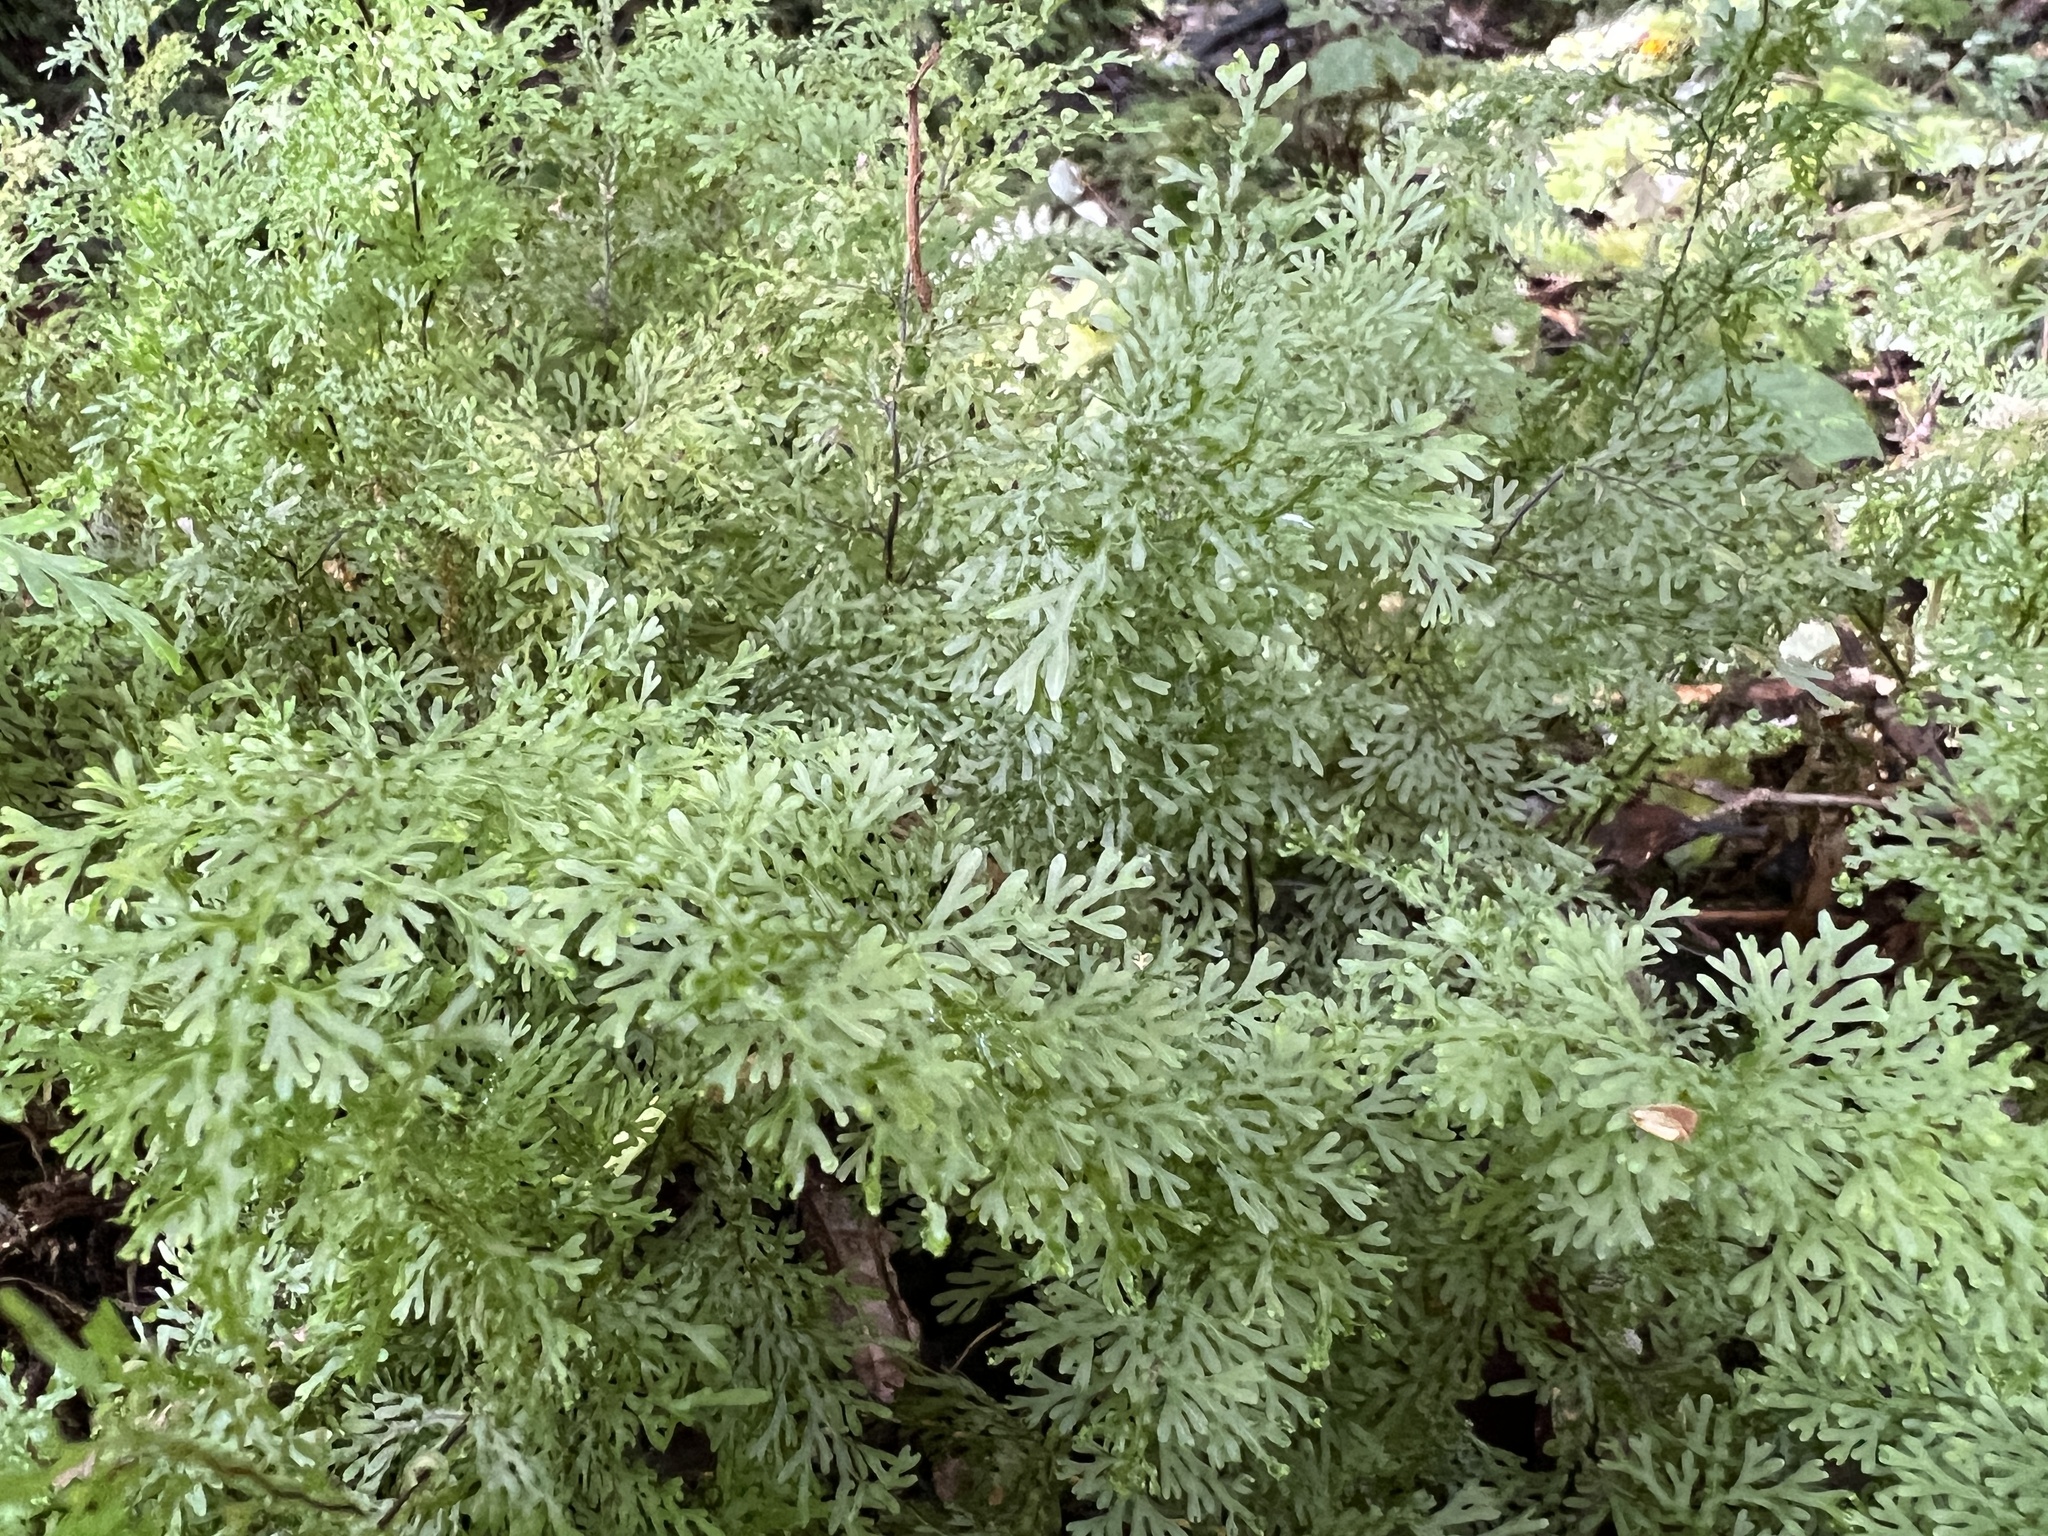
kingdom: Plantae
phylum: Tracheophyta
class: Polypodiopsida
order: Hymenophyllales
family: Hymenophyllaceae
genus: Hymenophyllum
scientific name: Hymenophyllum flexuosum
